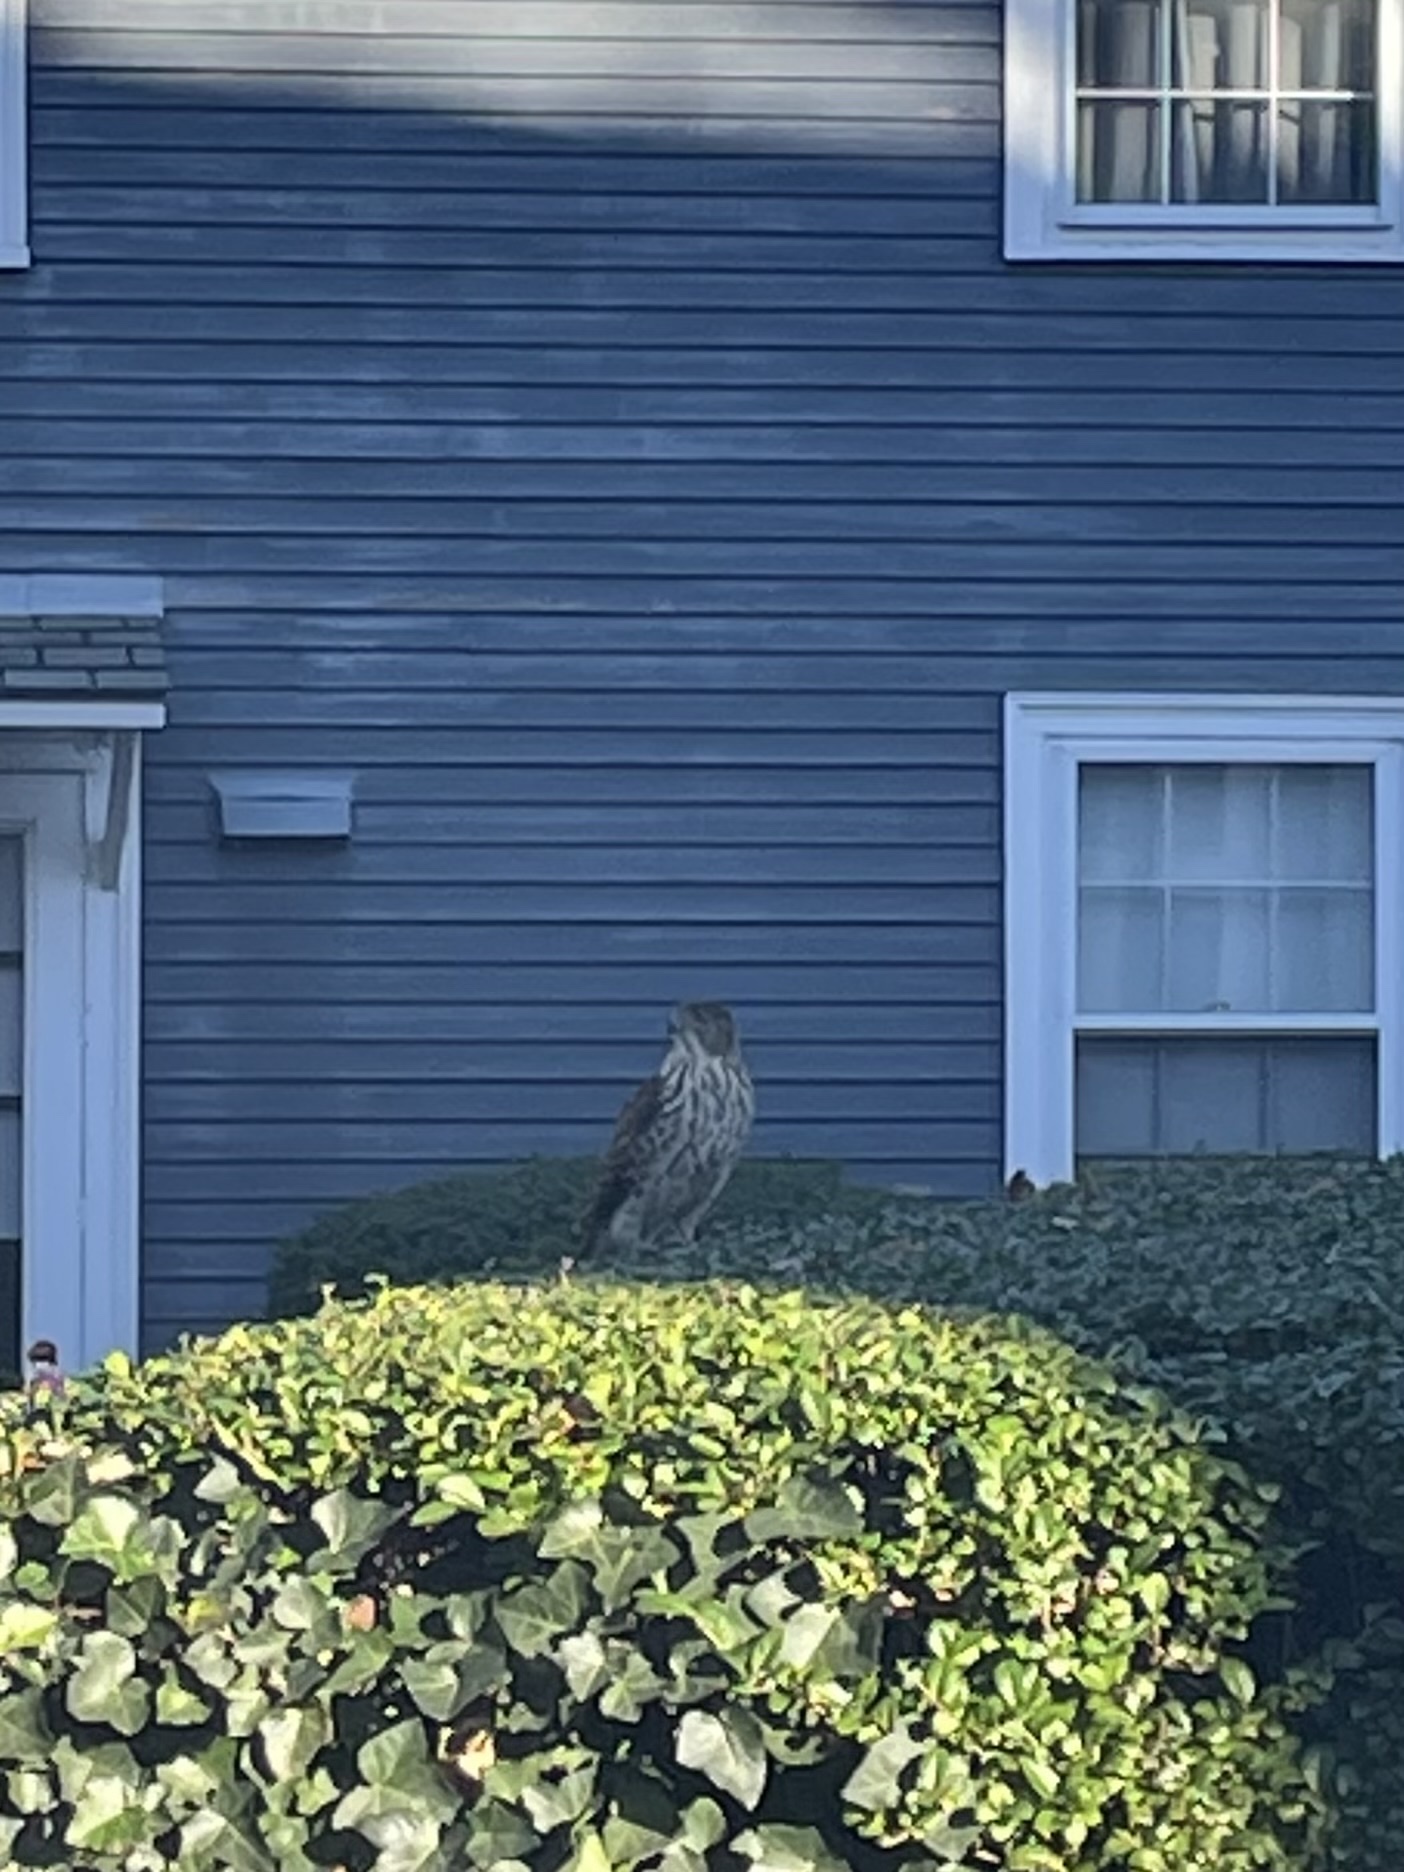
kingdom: Animalia
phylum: Chordata
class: Aves
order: Accipitriformes
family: Accipitridae
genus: Accipiter
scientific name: Accipiter cooperii
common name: Cooper's hawk
